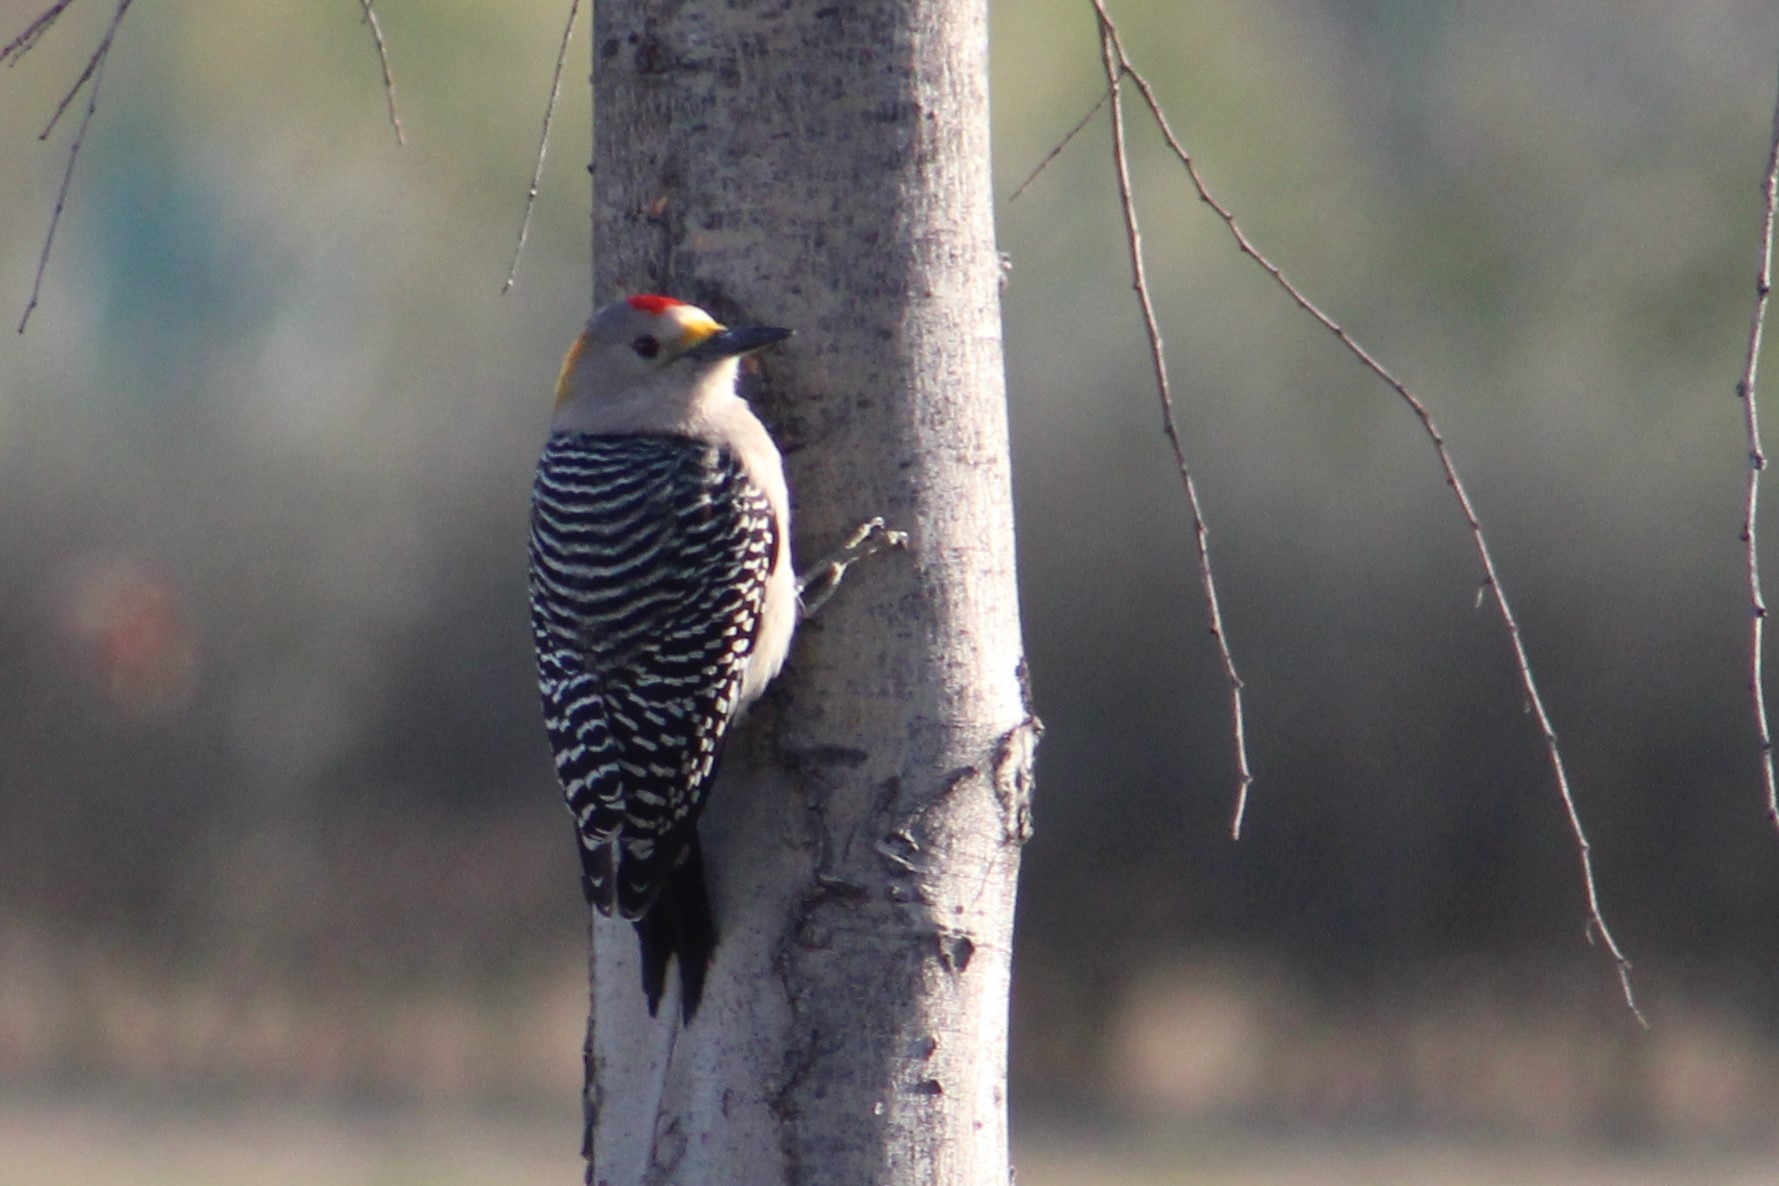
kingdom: Animalia
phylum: Chordata
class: Aves
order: Piciformes
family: Picidae
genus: Melanerpes
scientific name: Melanerpes aurifrons
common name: Golden-fronted woodpecker
